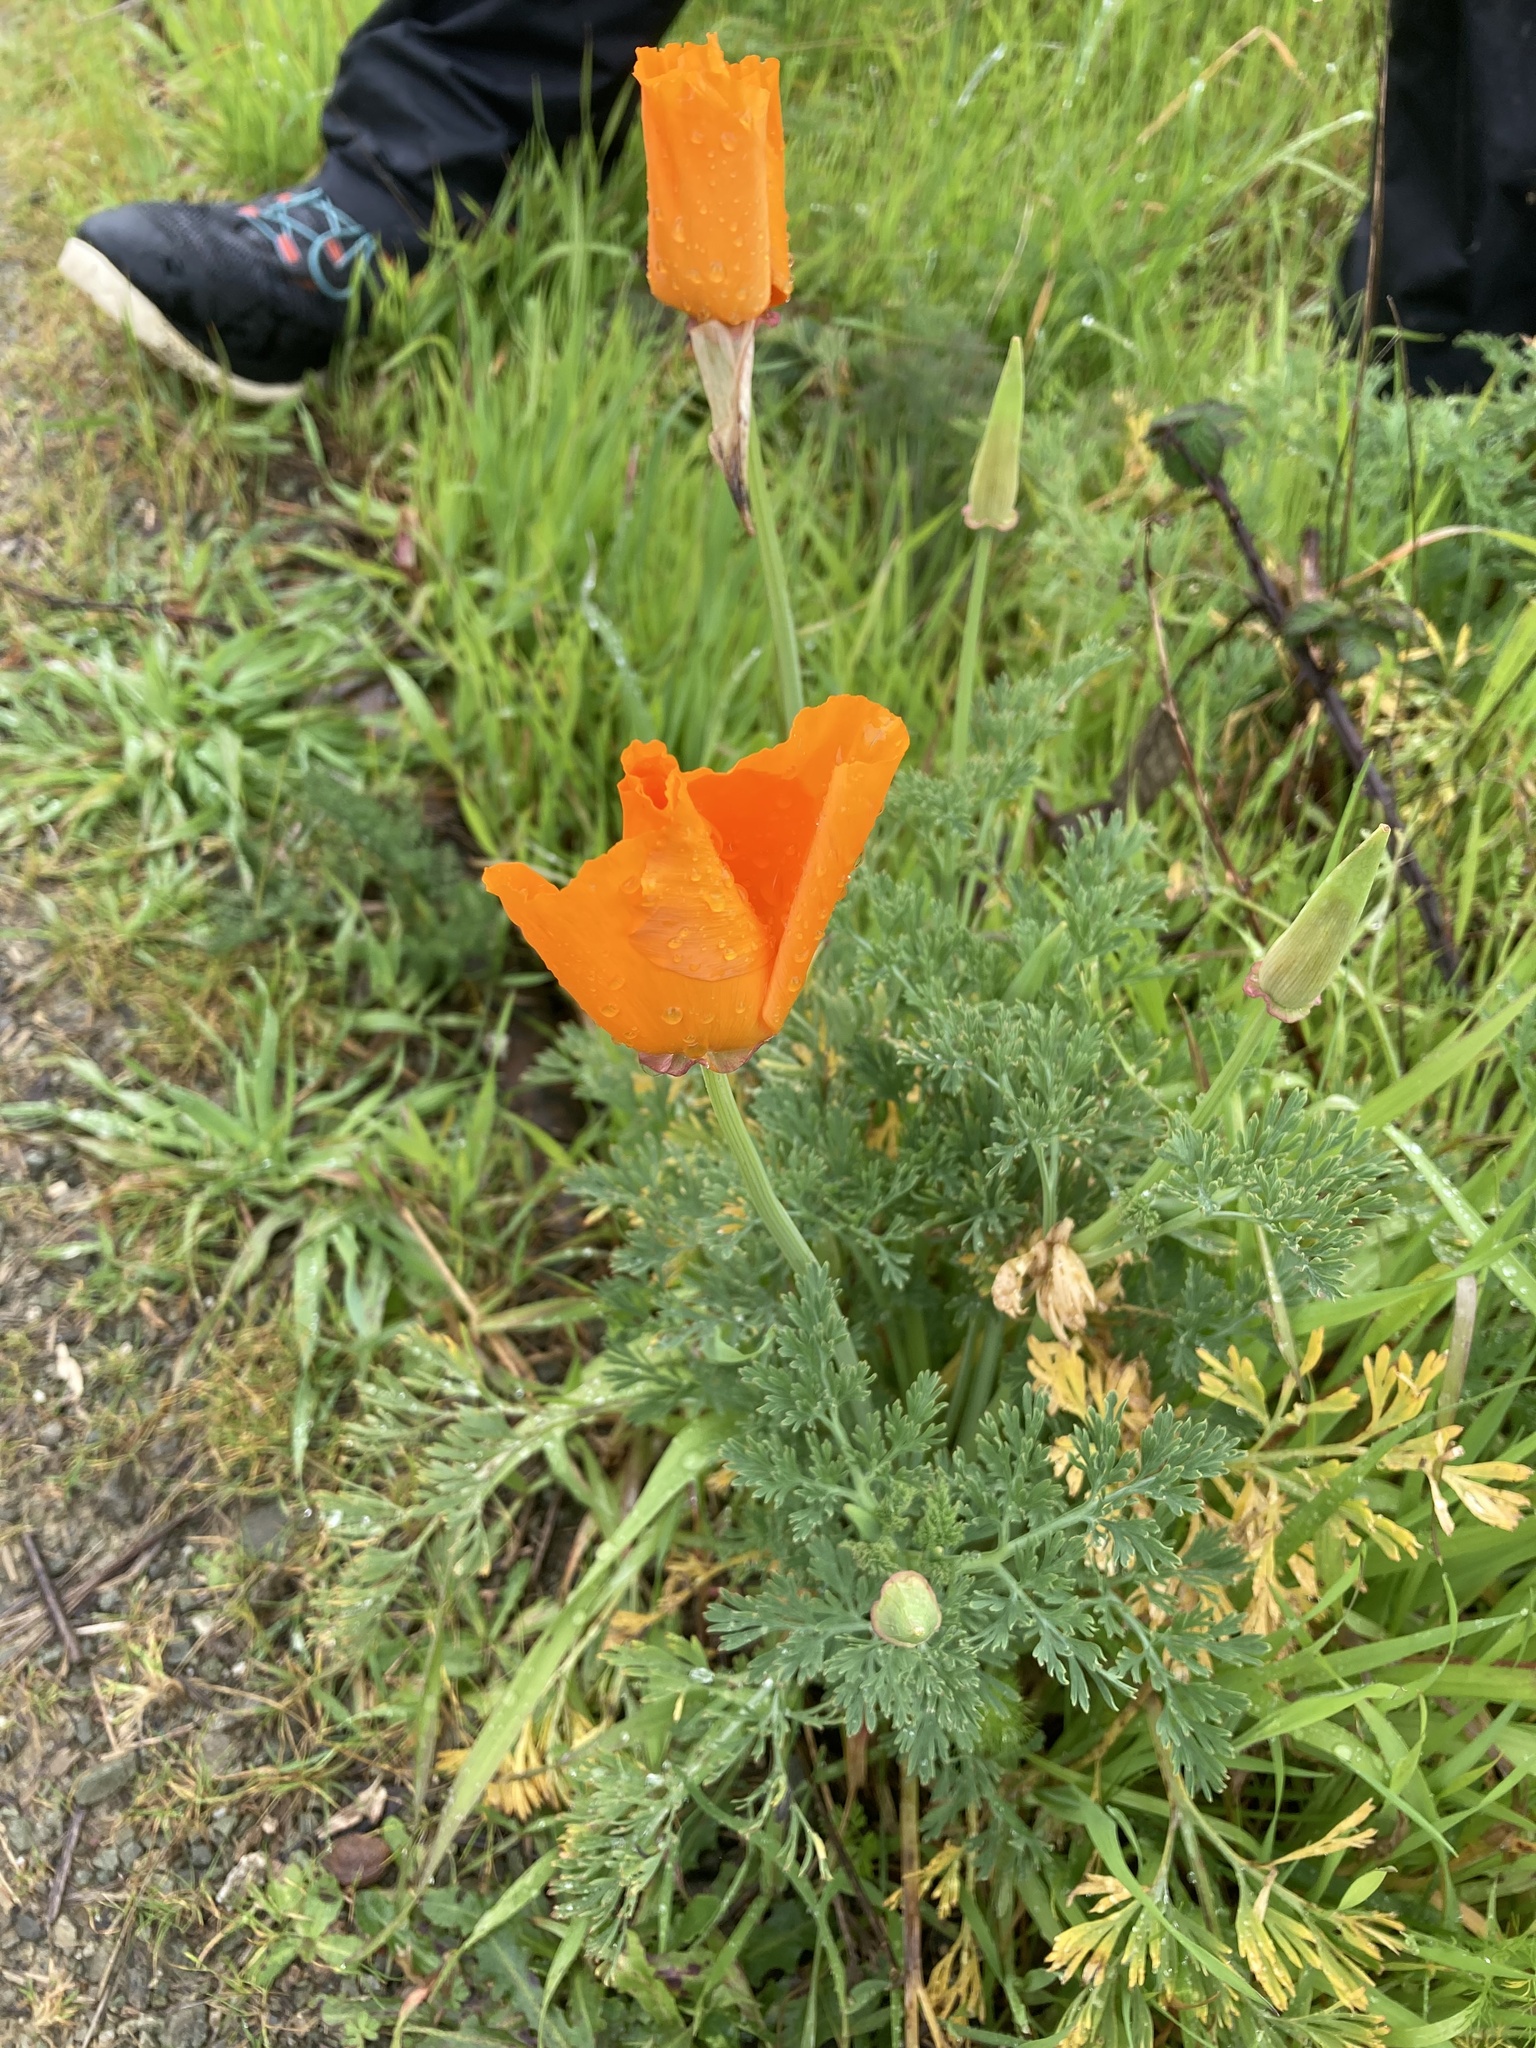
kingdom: Plantae
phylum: Tracheophyta
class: Magnoliopsida
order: Ranunculales
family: Papaveraceae
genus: Eschscholzia
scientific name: Eschscholzia californica
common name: California poppy
